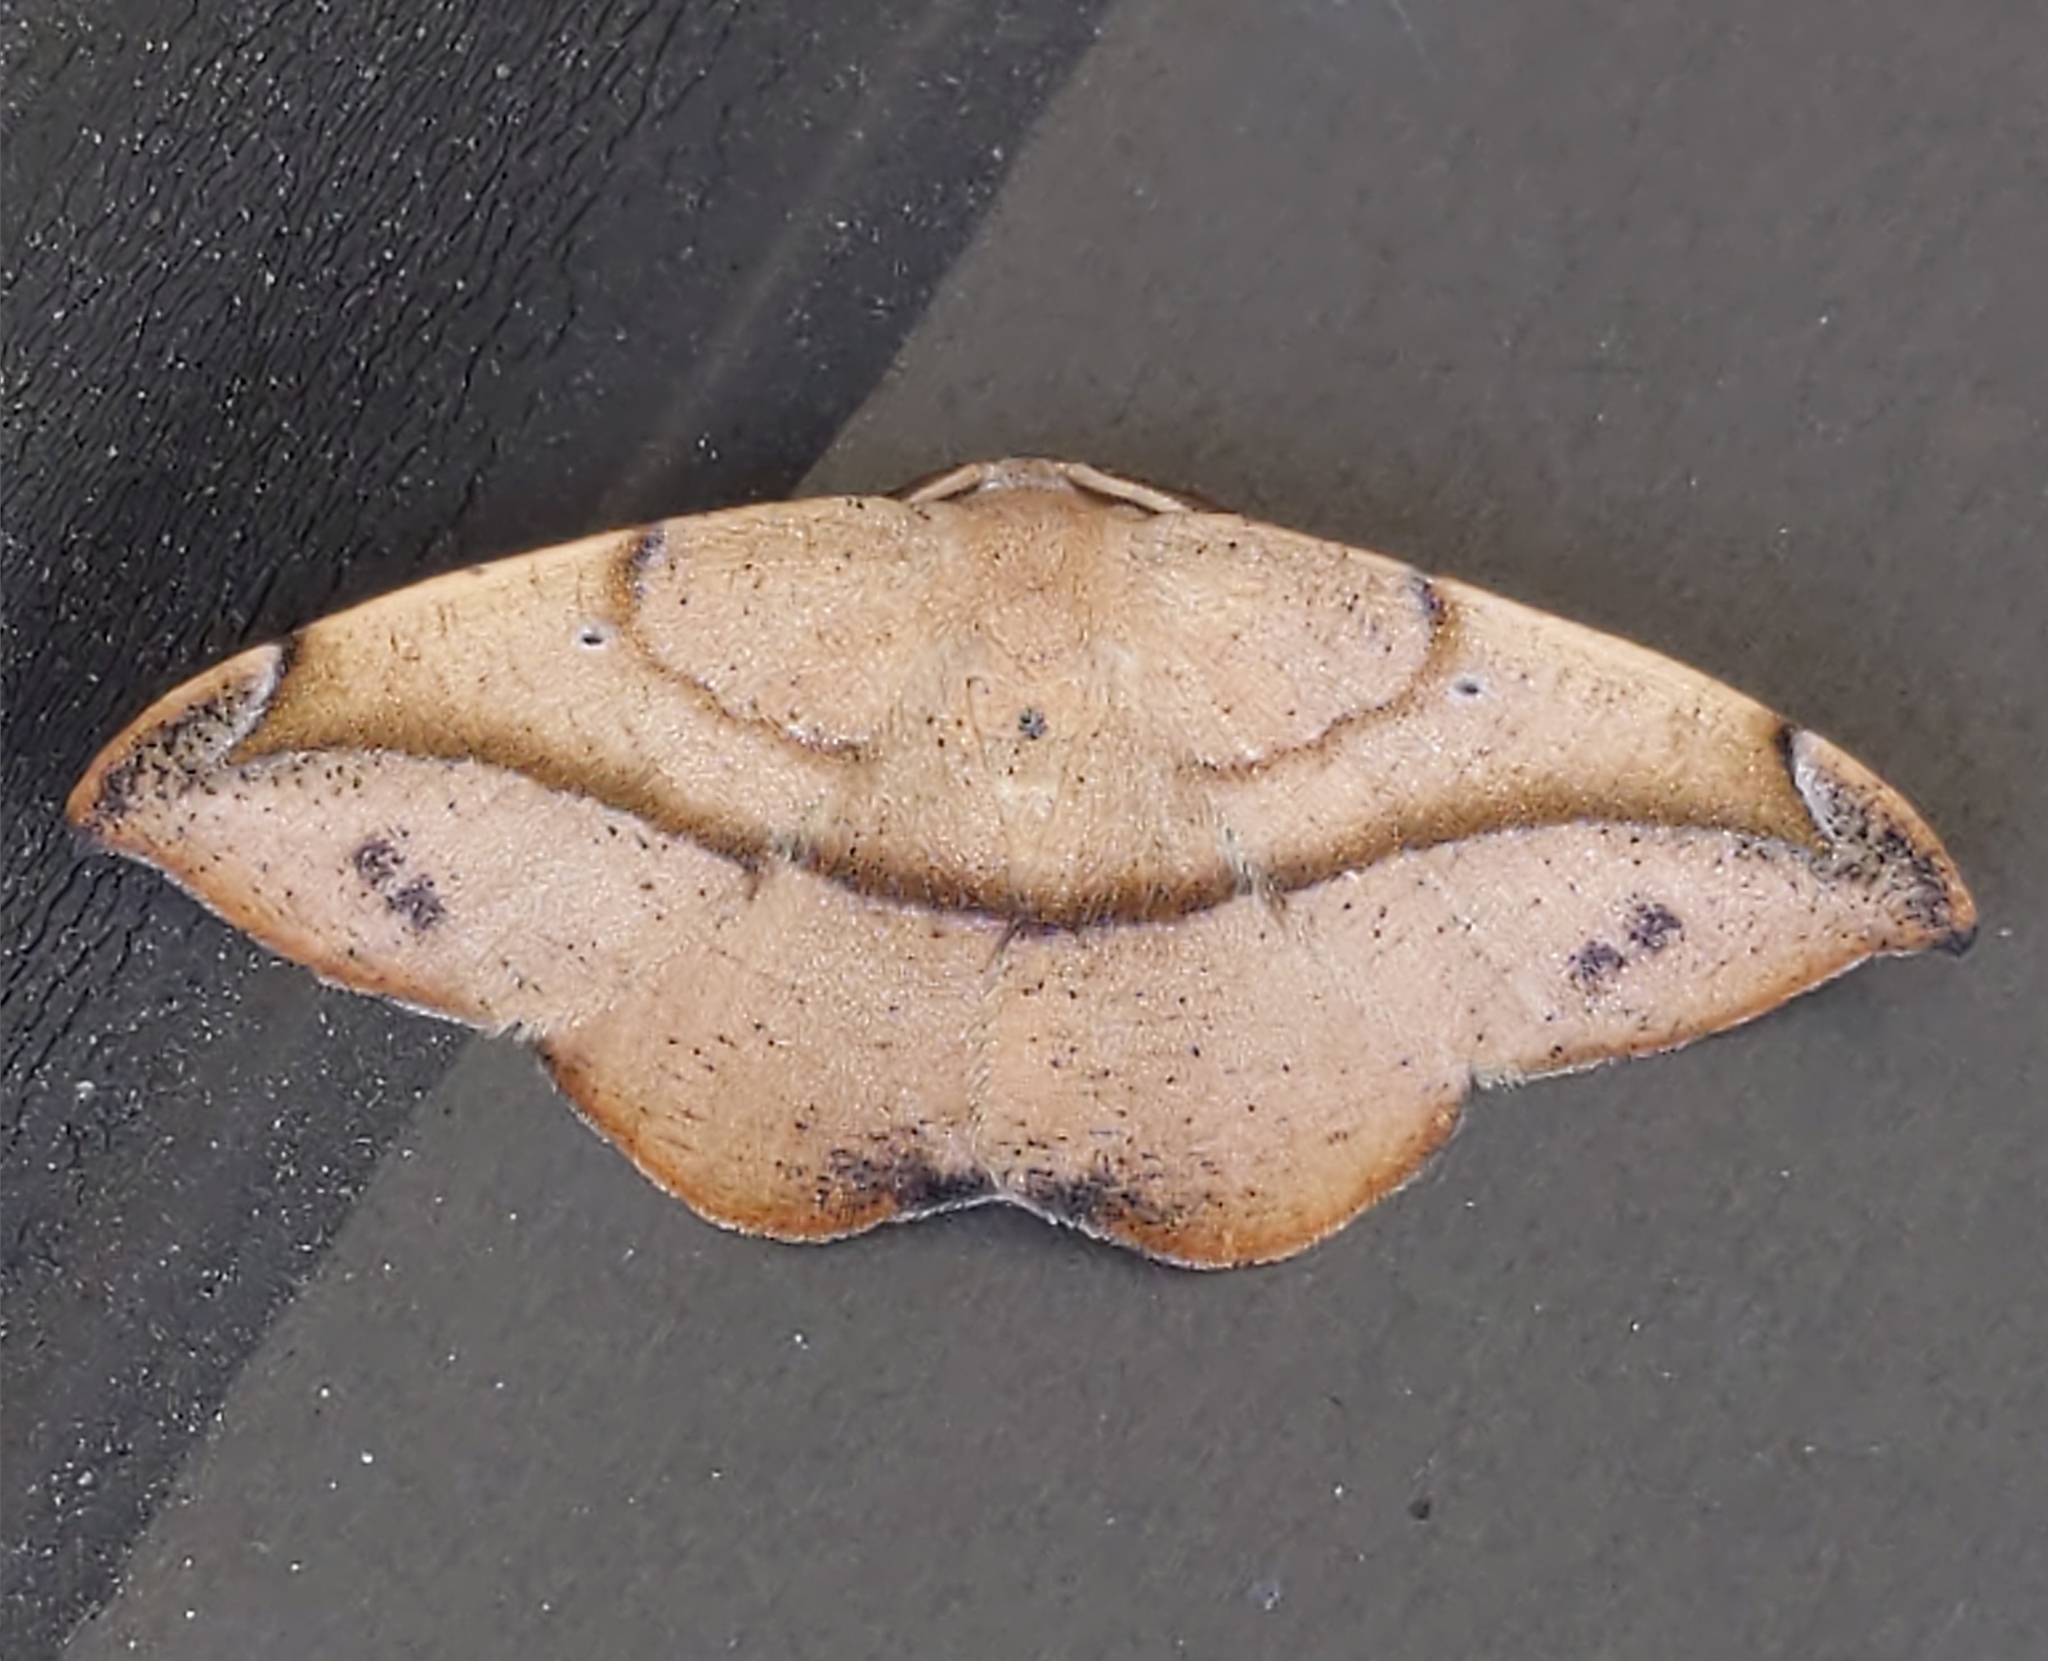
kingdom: Animalia
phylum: Arthropoda
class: Insecta
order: Lepidoptera
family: Geometridae
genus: Patalene
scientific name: Patalene olyzonaria
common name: Juniper geometer moth
